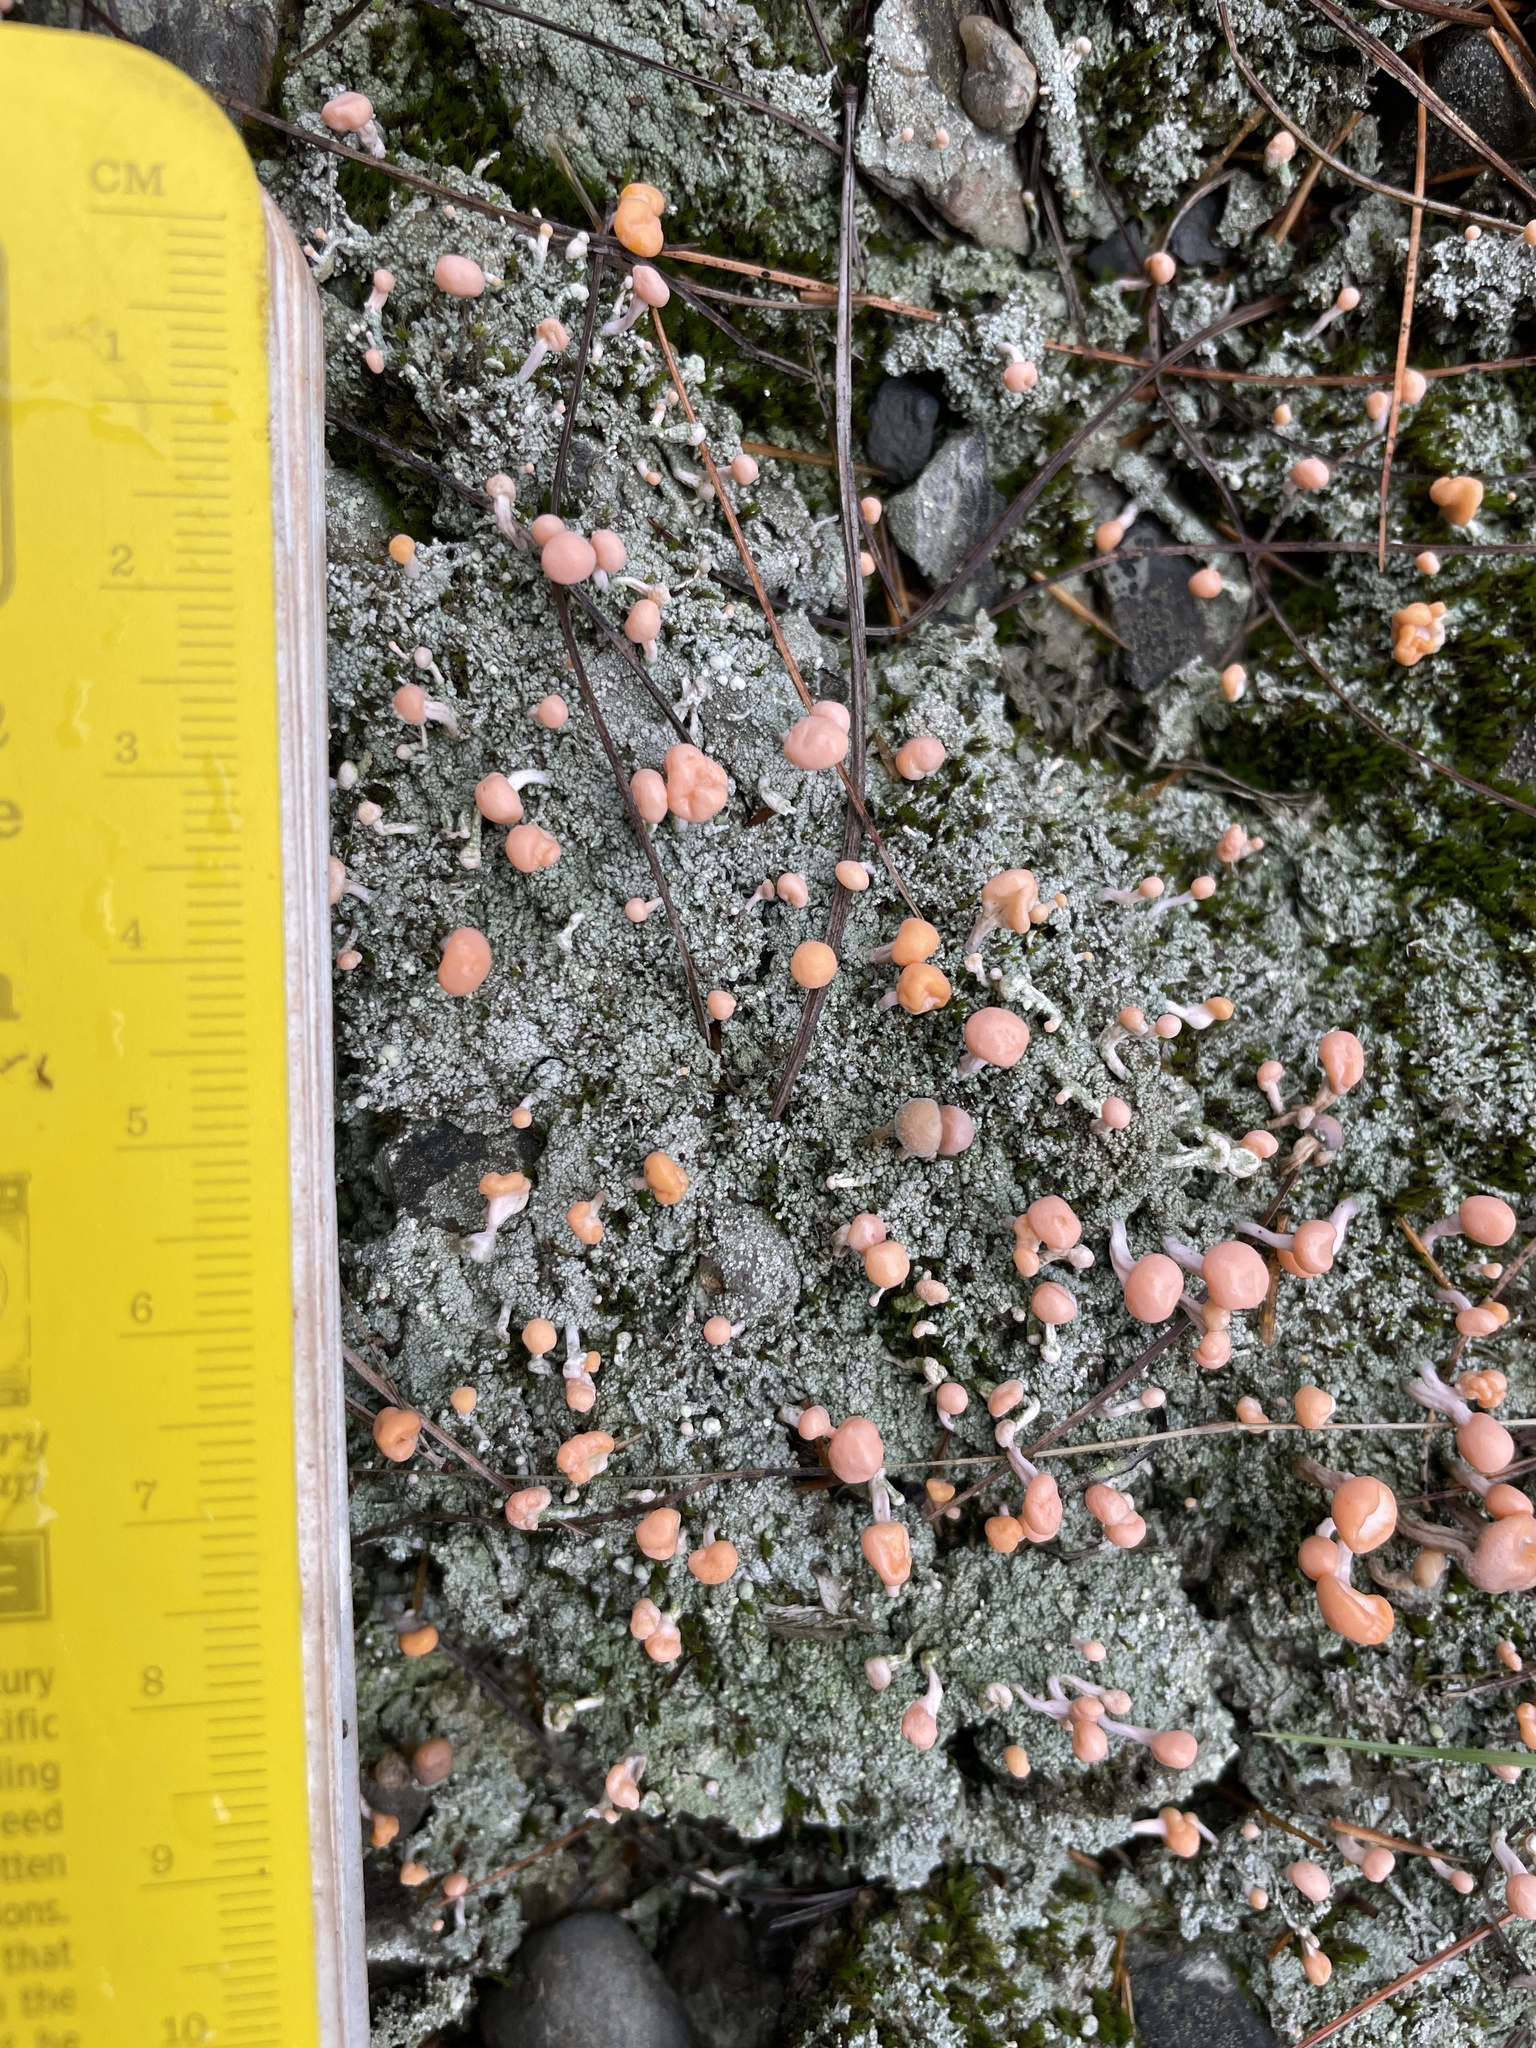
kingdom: Fungi
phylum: Ascomycota
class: Lecanoromycetes
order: Pertusariales
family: Icmadophilaceae
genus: Dibaeis
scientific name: Dibaeis baeomyces
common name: Pink earth lichen
